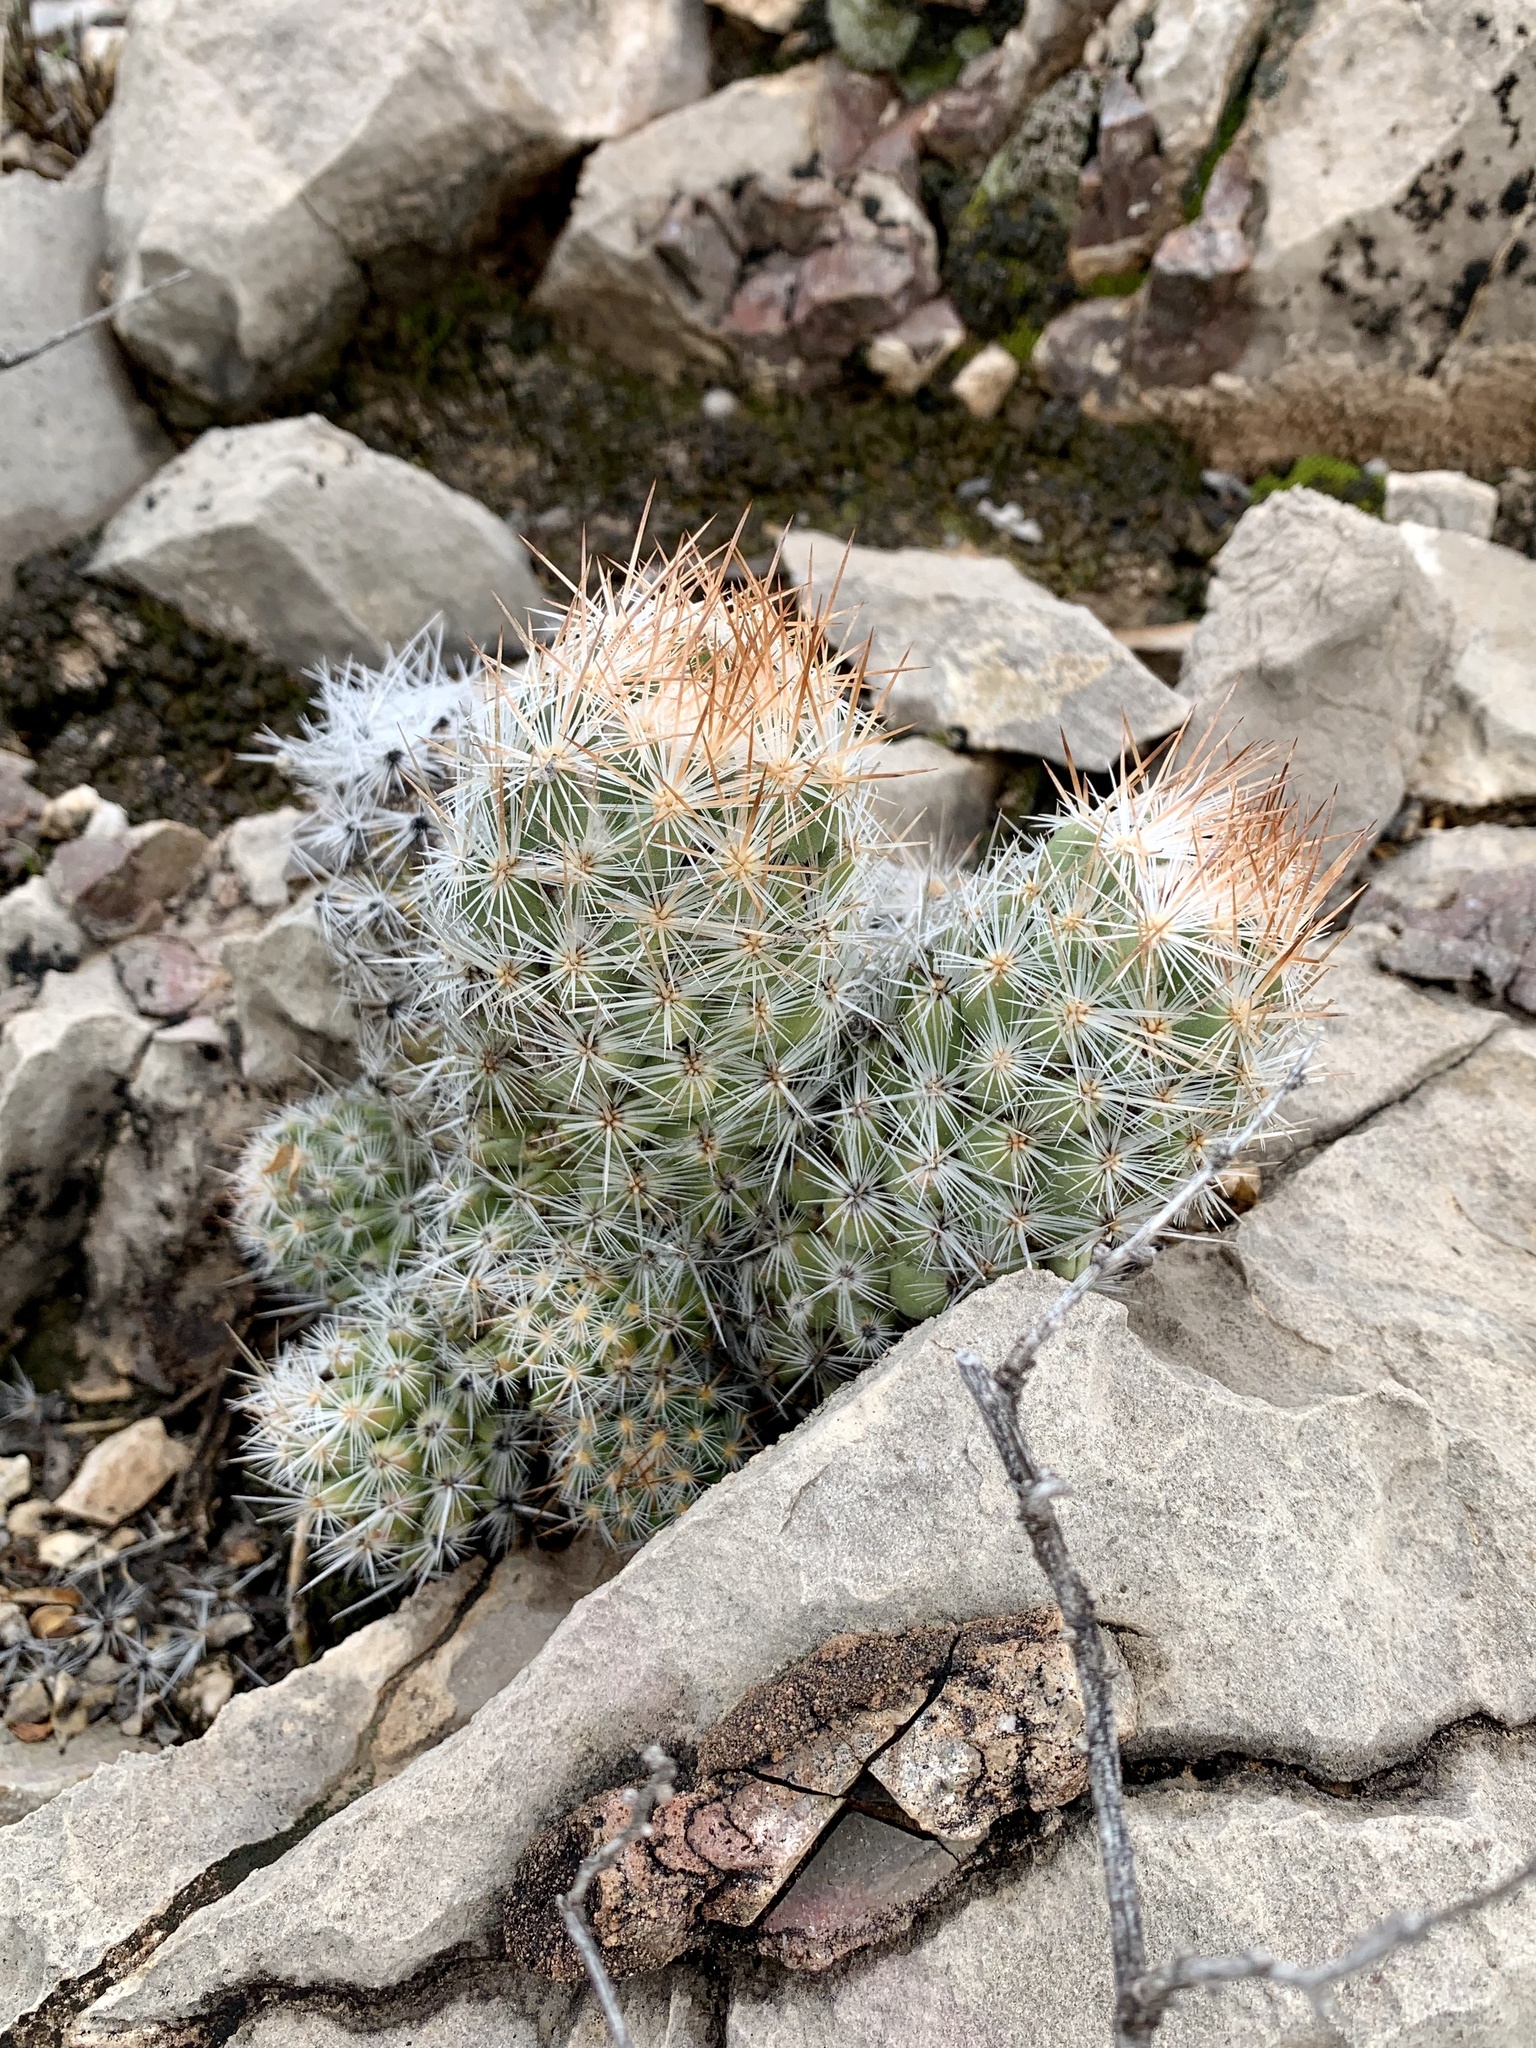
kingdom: Plantae
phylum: Tracheophyta
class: Magnoliopsida
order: Caryophyllales
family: Cactaceae
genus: Pelecyphora
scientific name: Pelecyphora tuberculosa
